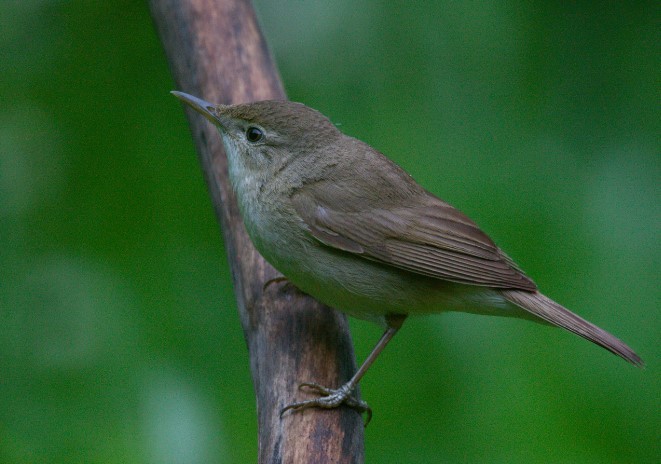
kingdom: Animalia
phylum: Chordata
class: Aves
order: Passeriformes
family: Acrocephalidae
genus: Acrocephalus
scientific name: Acrocephalus dumetorum
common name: Blyth's reed warbler
